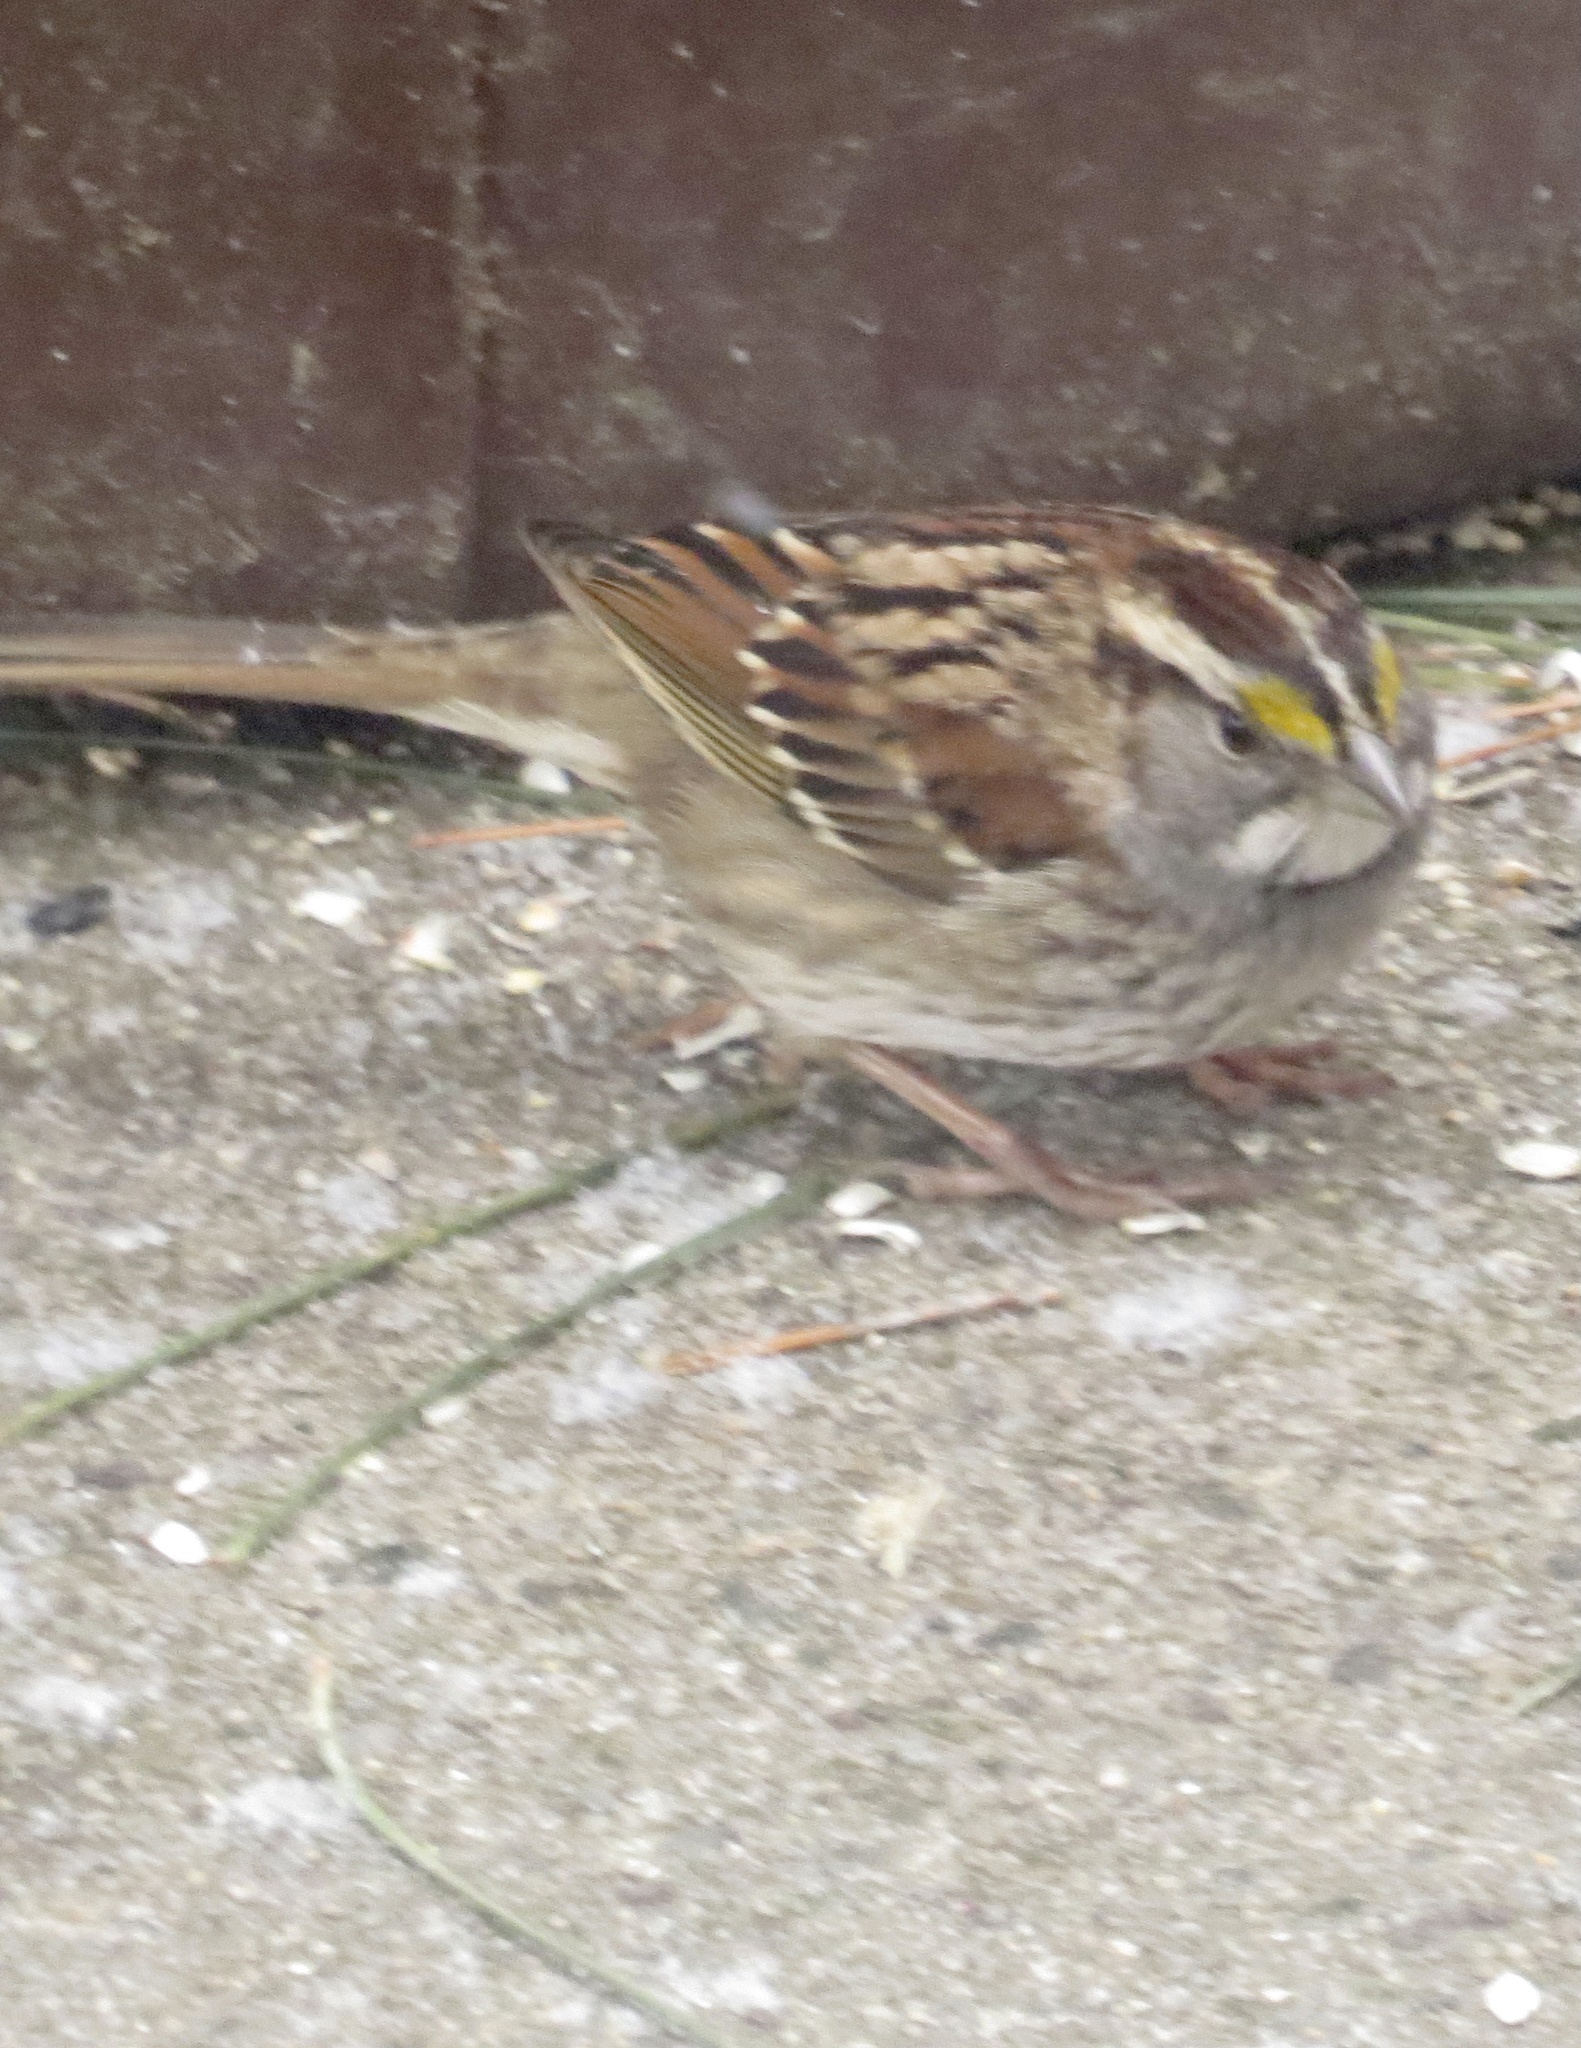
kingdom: Animalia
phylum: Chordata
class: Aves
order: Passeriformes
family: Passerellidae
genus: Zonotrichia
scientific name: Zonotrichia albicollis
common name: White-throated sparrow
